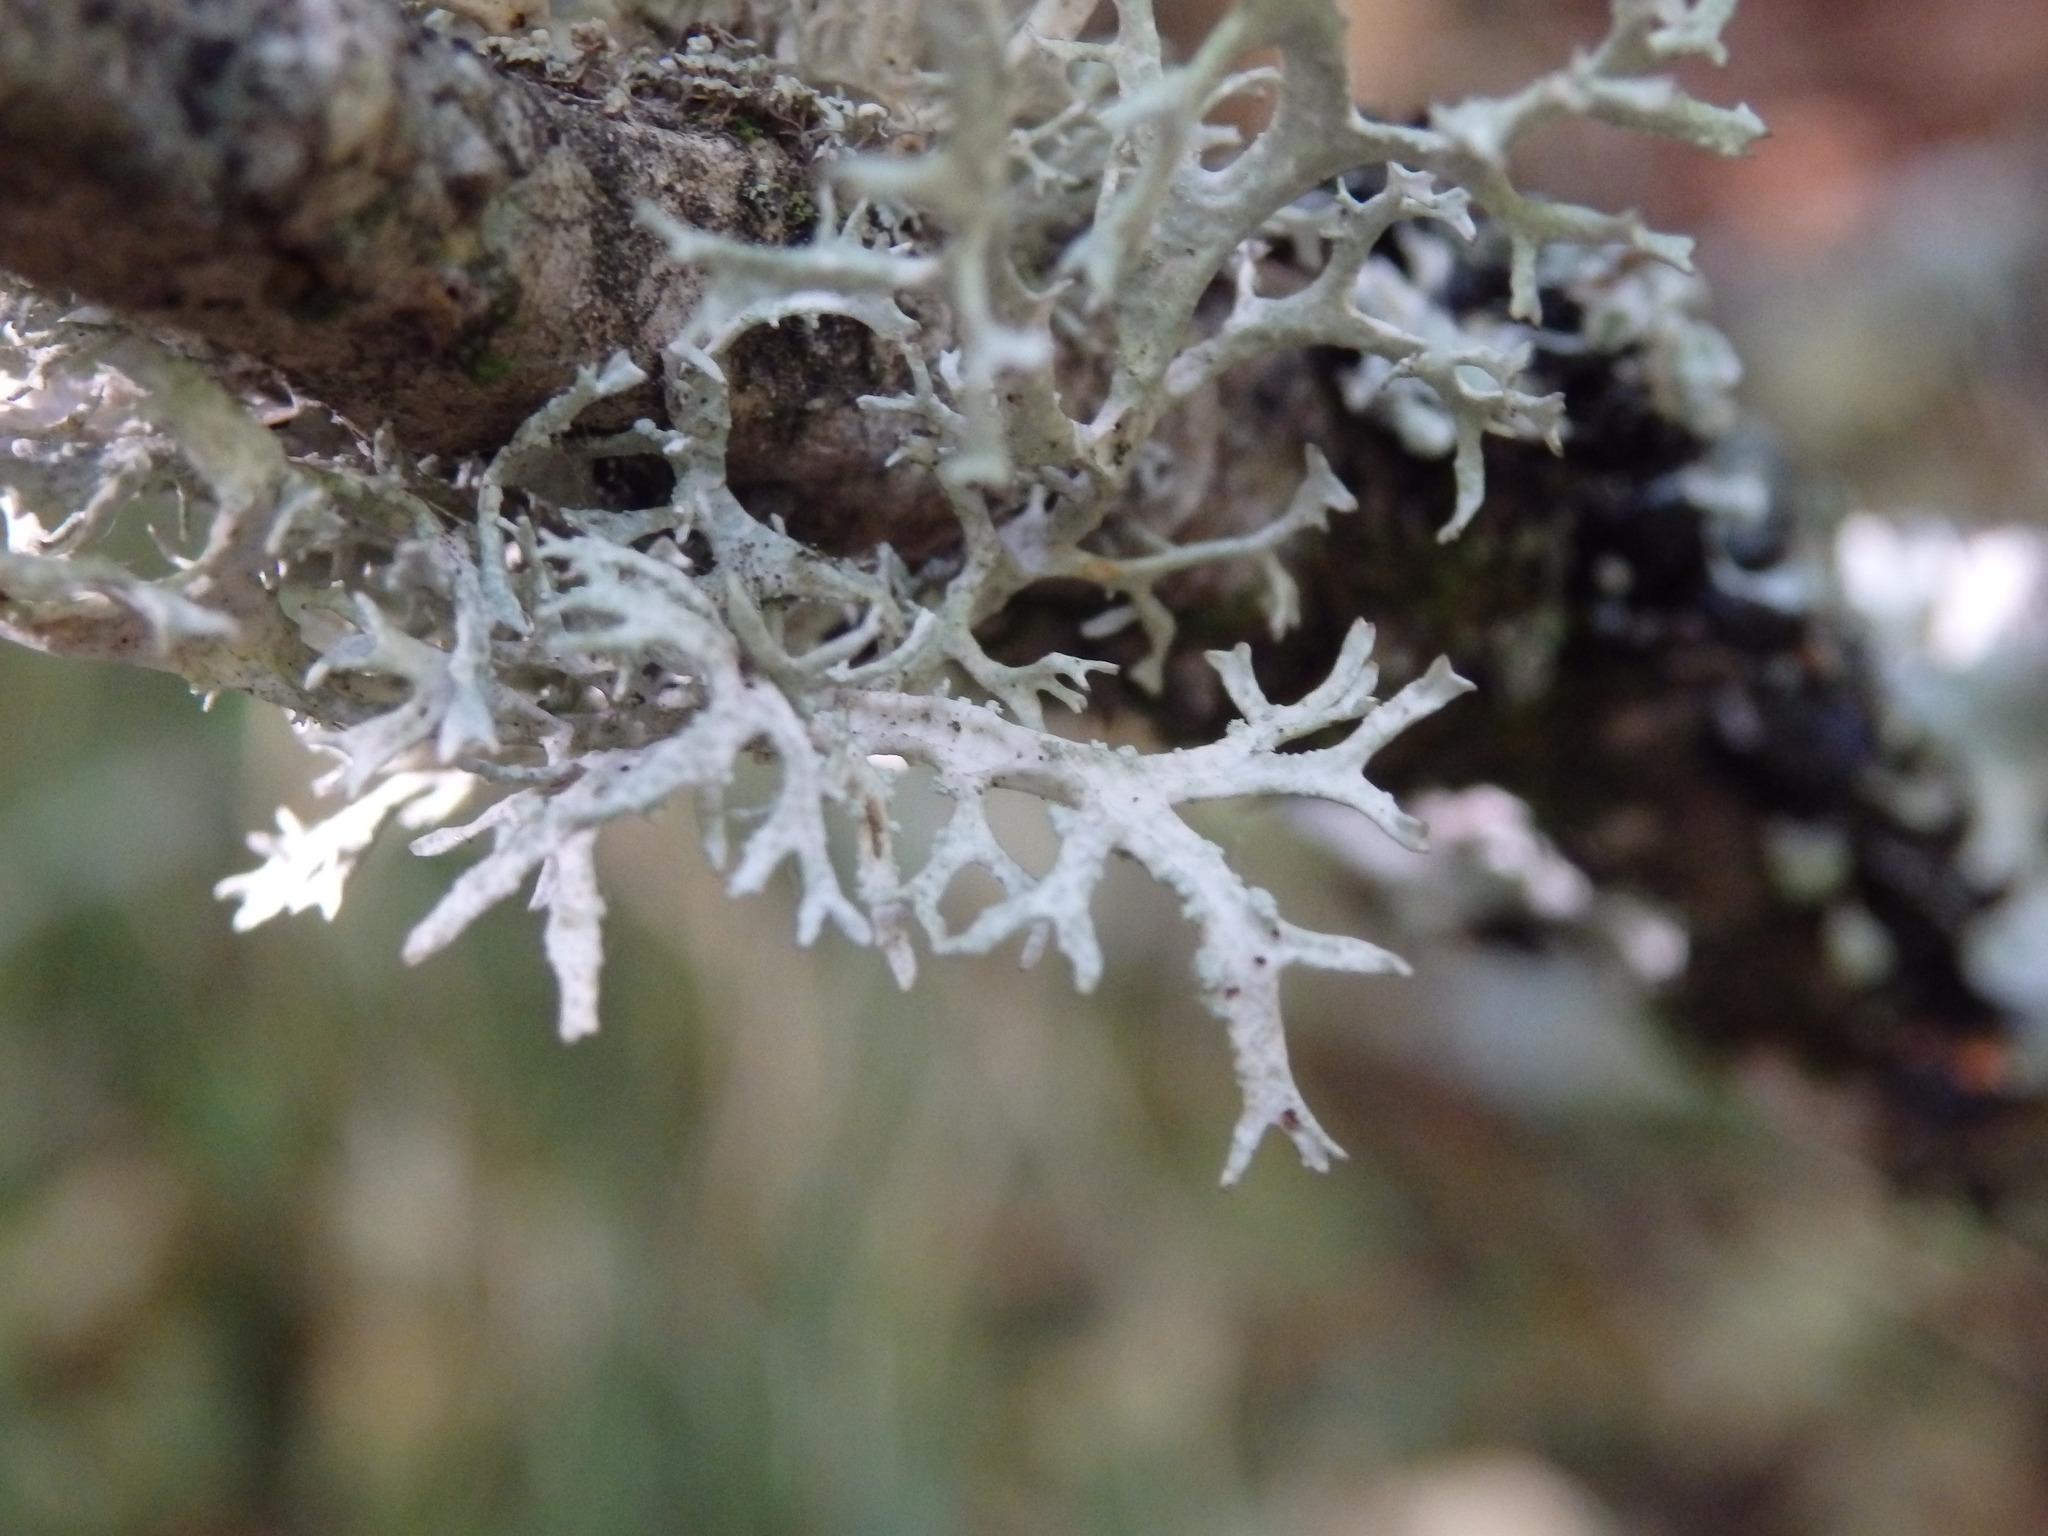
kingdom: Fungi
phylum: Ascomycota
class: Lecanoromycetes
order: Lecanorales
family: Parmeliaceae
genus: Evernia
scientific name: Evernia prunastri
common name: Oak moss
